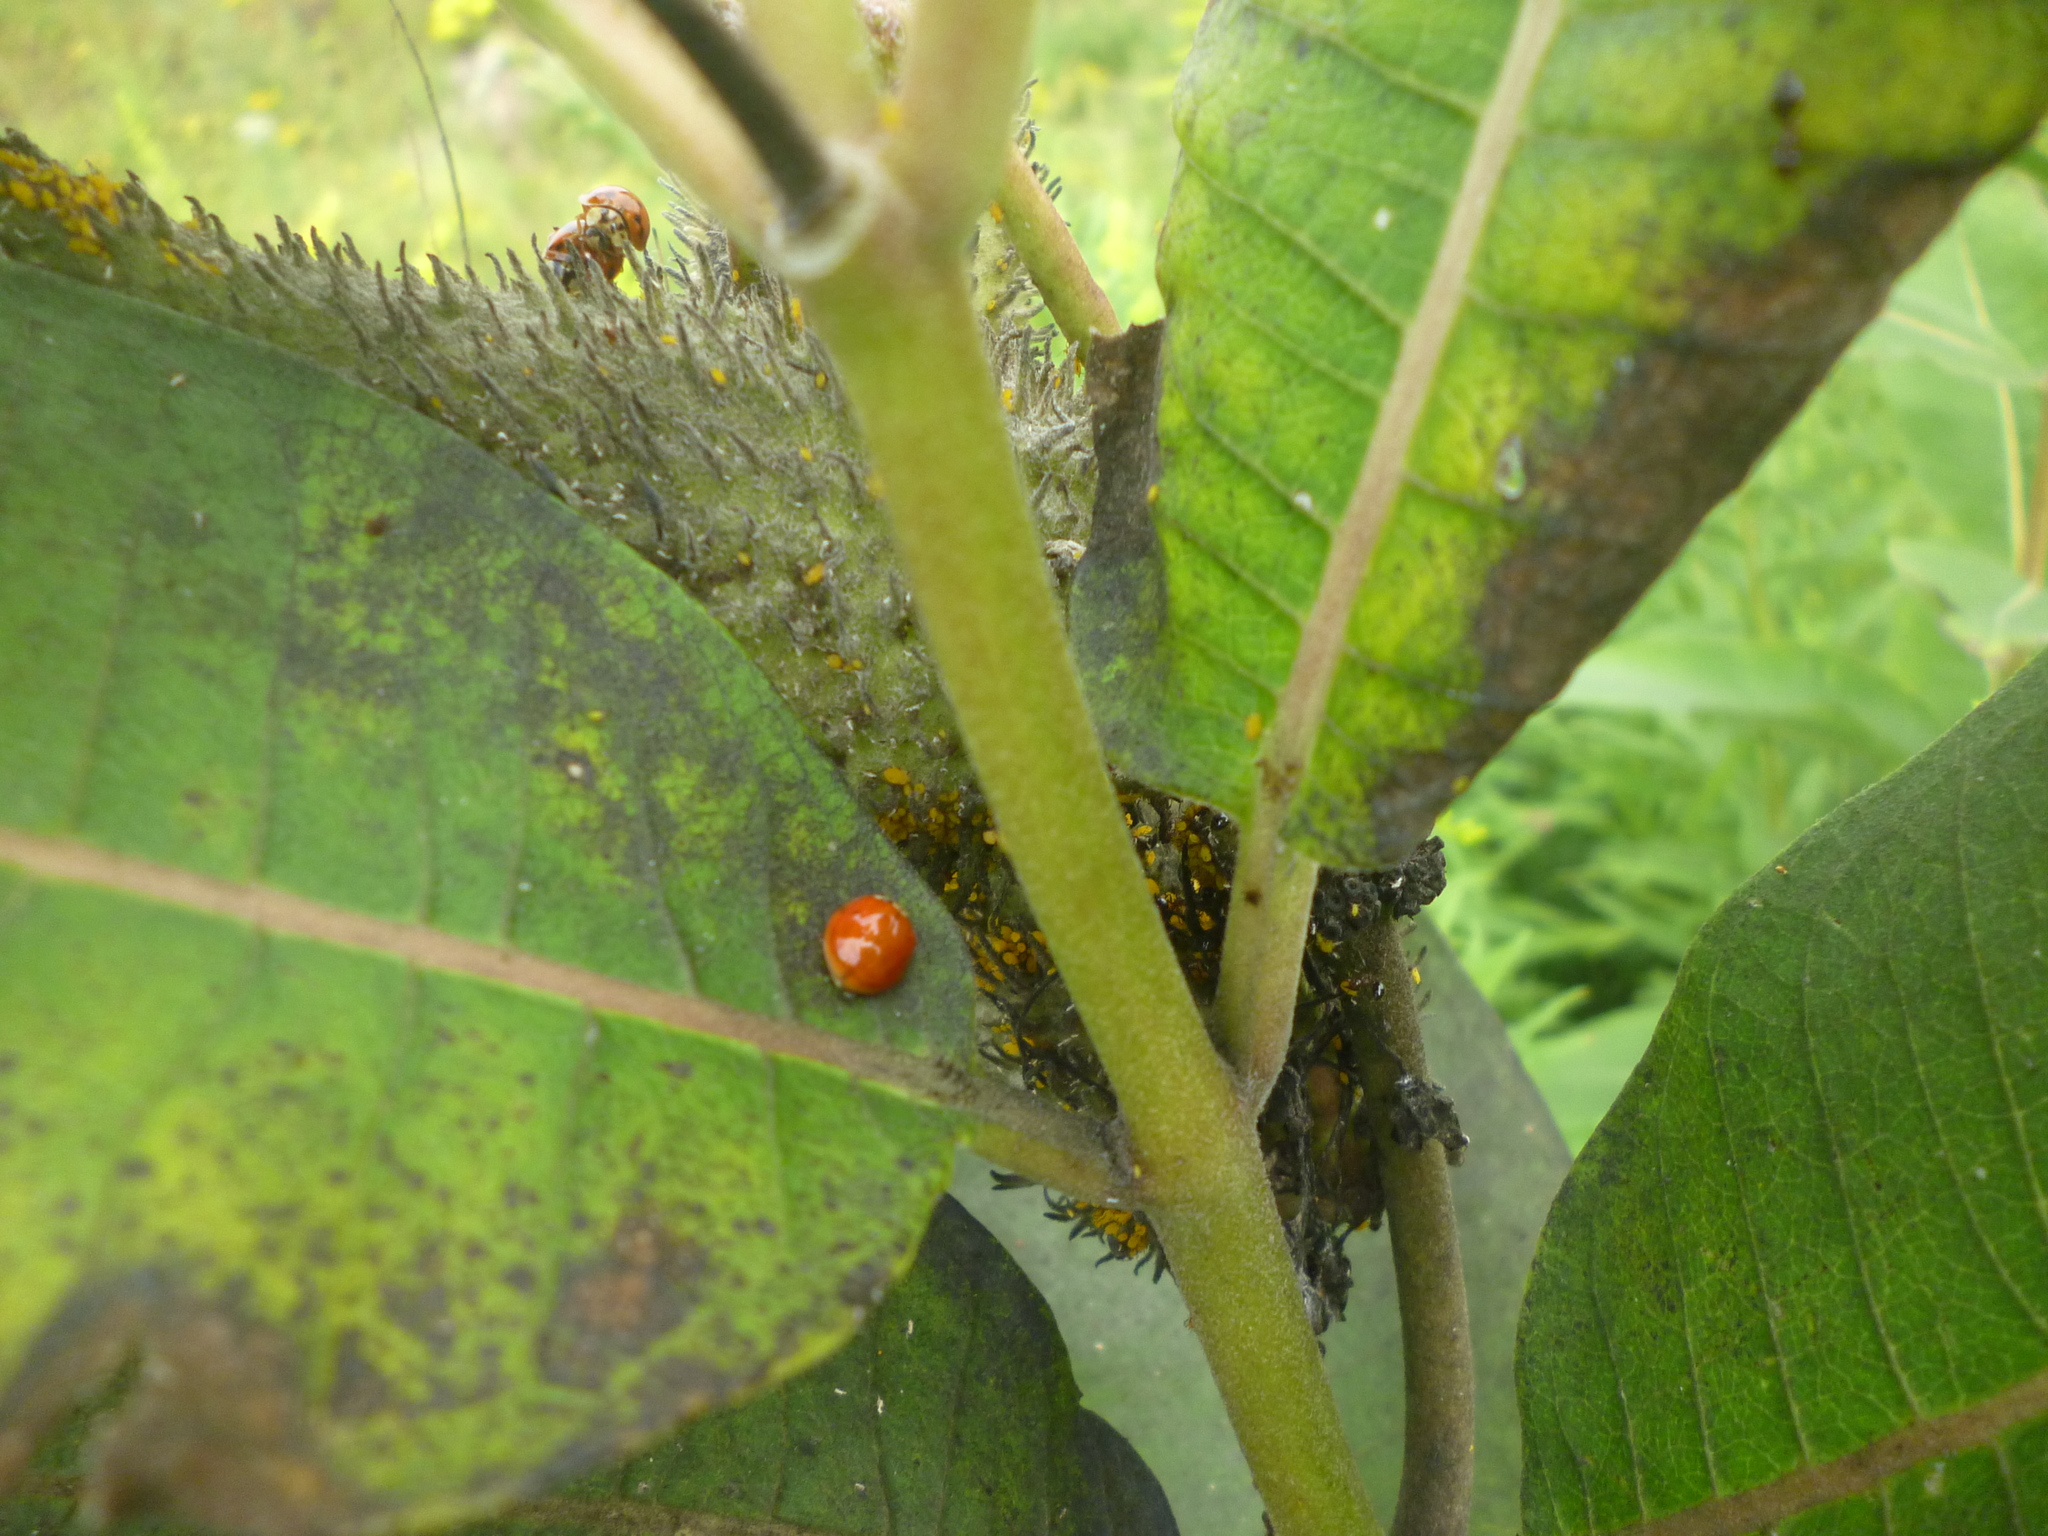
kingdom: Animalia
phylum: Arthropoda
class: Insecta
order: Coleoptera
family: Coccinellidae
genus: Harmonia
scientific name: Harmonia axyridis
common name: Harlequin ladybird
